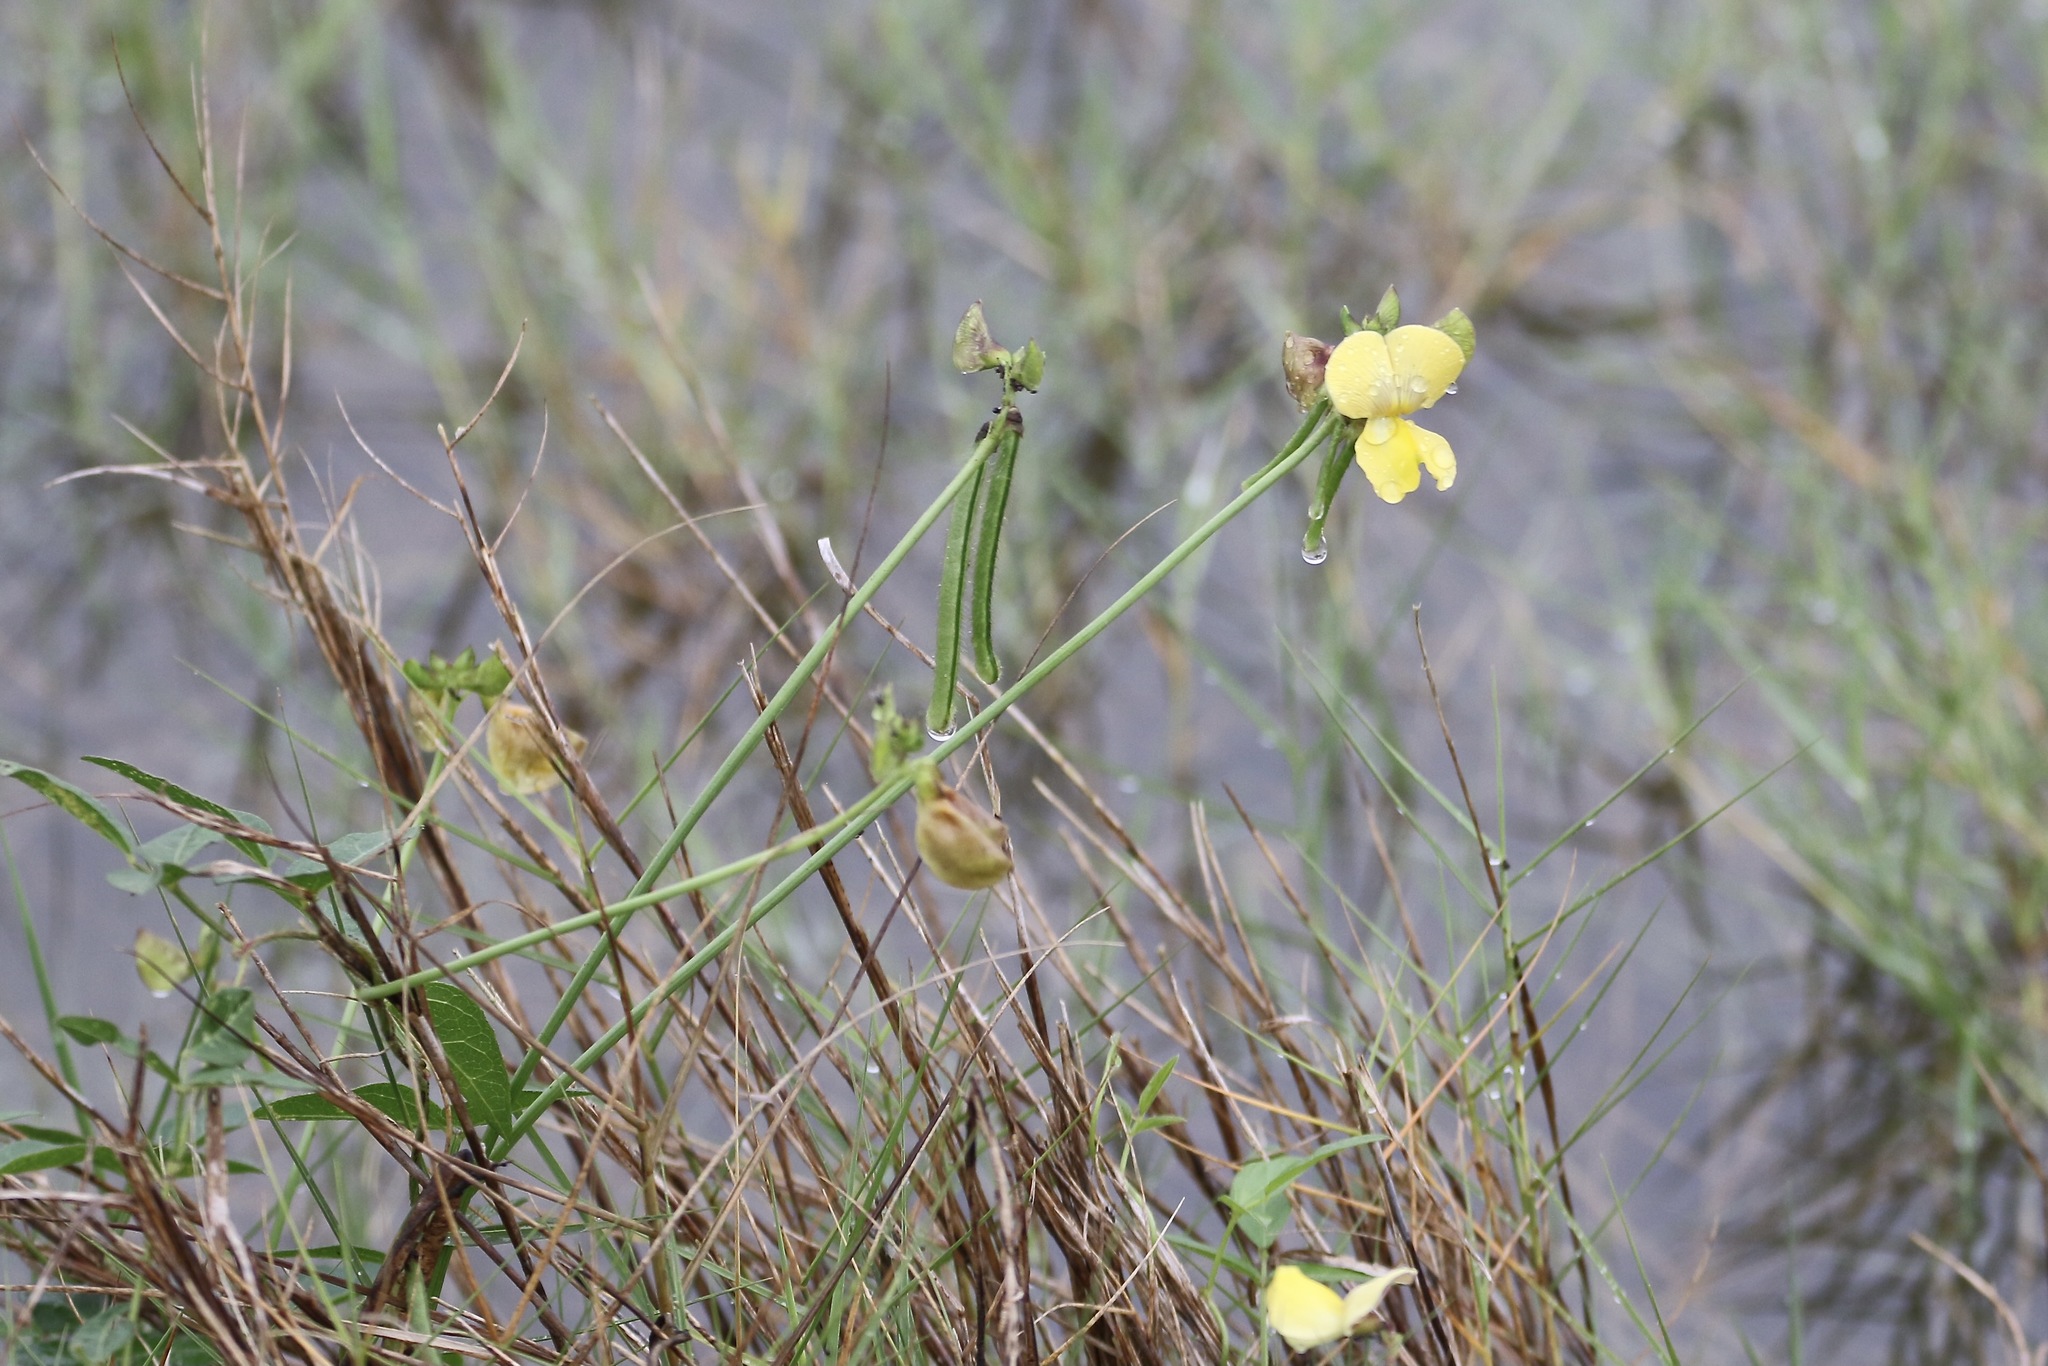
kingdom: Plantae
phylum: Tracheophyta
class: Magnoliopsida
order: Fabales
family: Fabaceae
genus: Vigna
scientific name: Vigna luteola
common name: Hairypod cowpea
